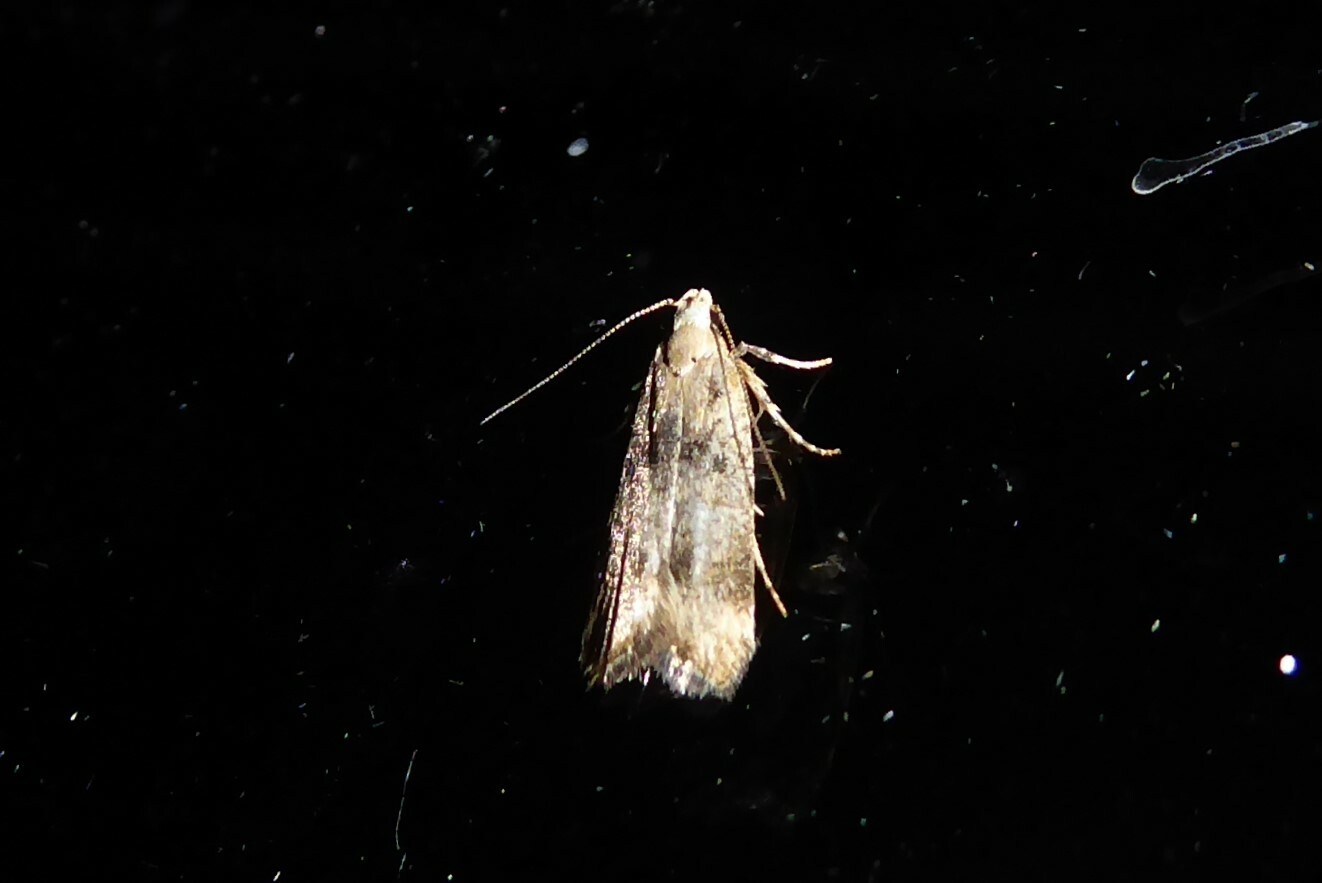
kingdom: Animalia
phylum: Arthropoda
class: Insecta
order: Lepidoptera
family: Gelechiidae
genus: Anisoplaca
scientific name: Anisoplaca acrodactyla
